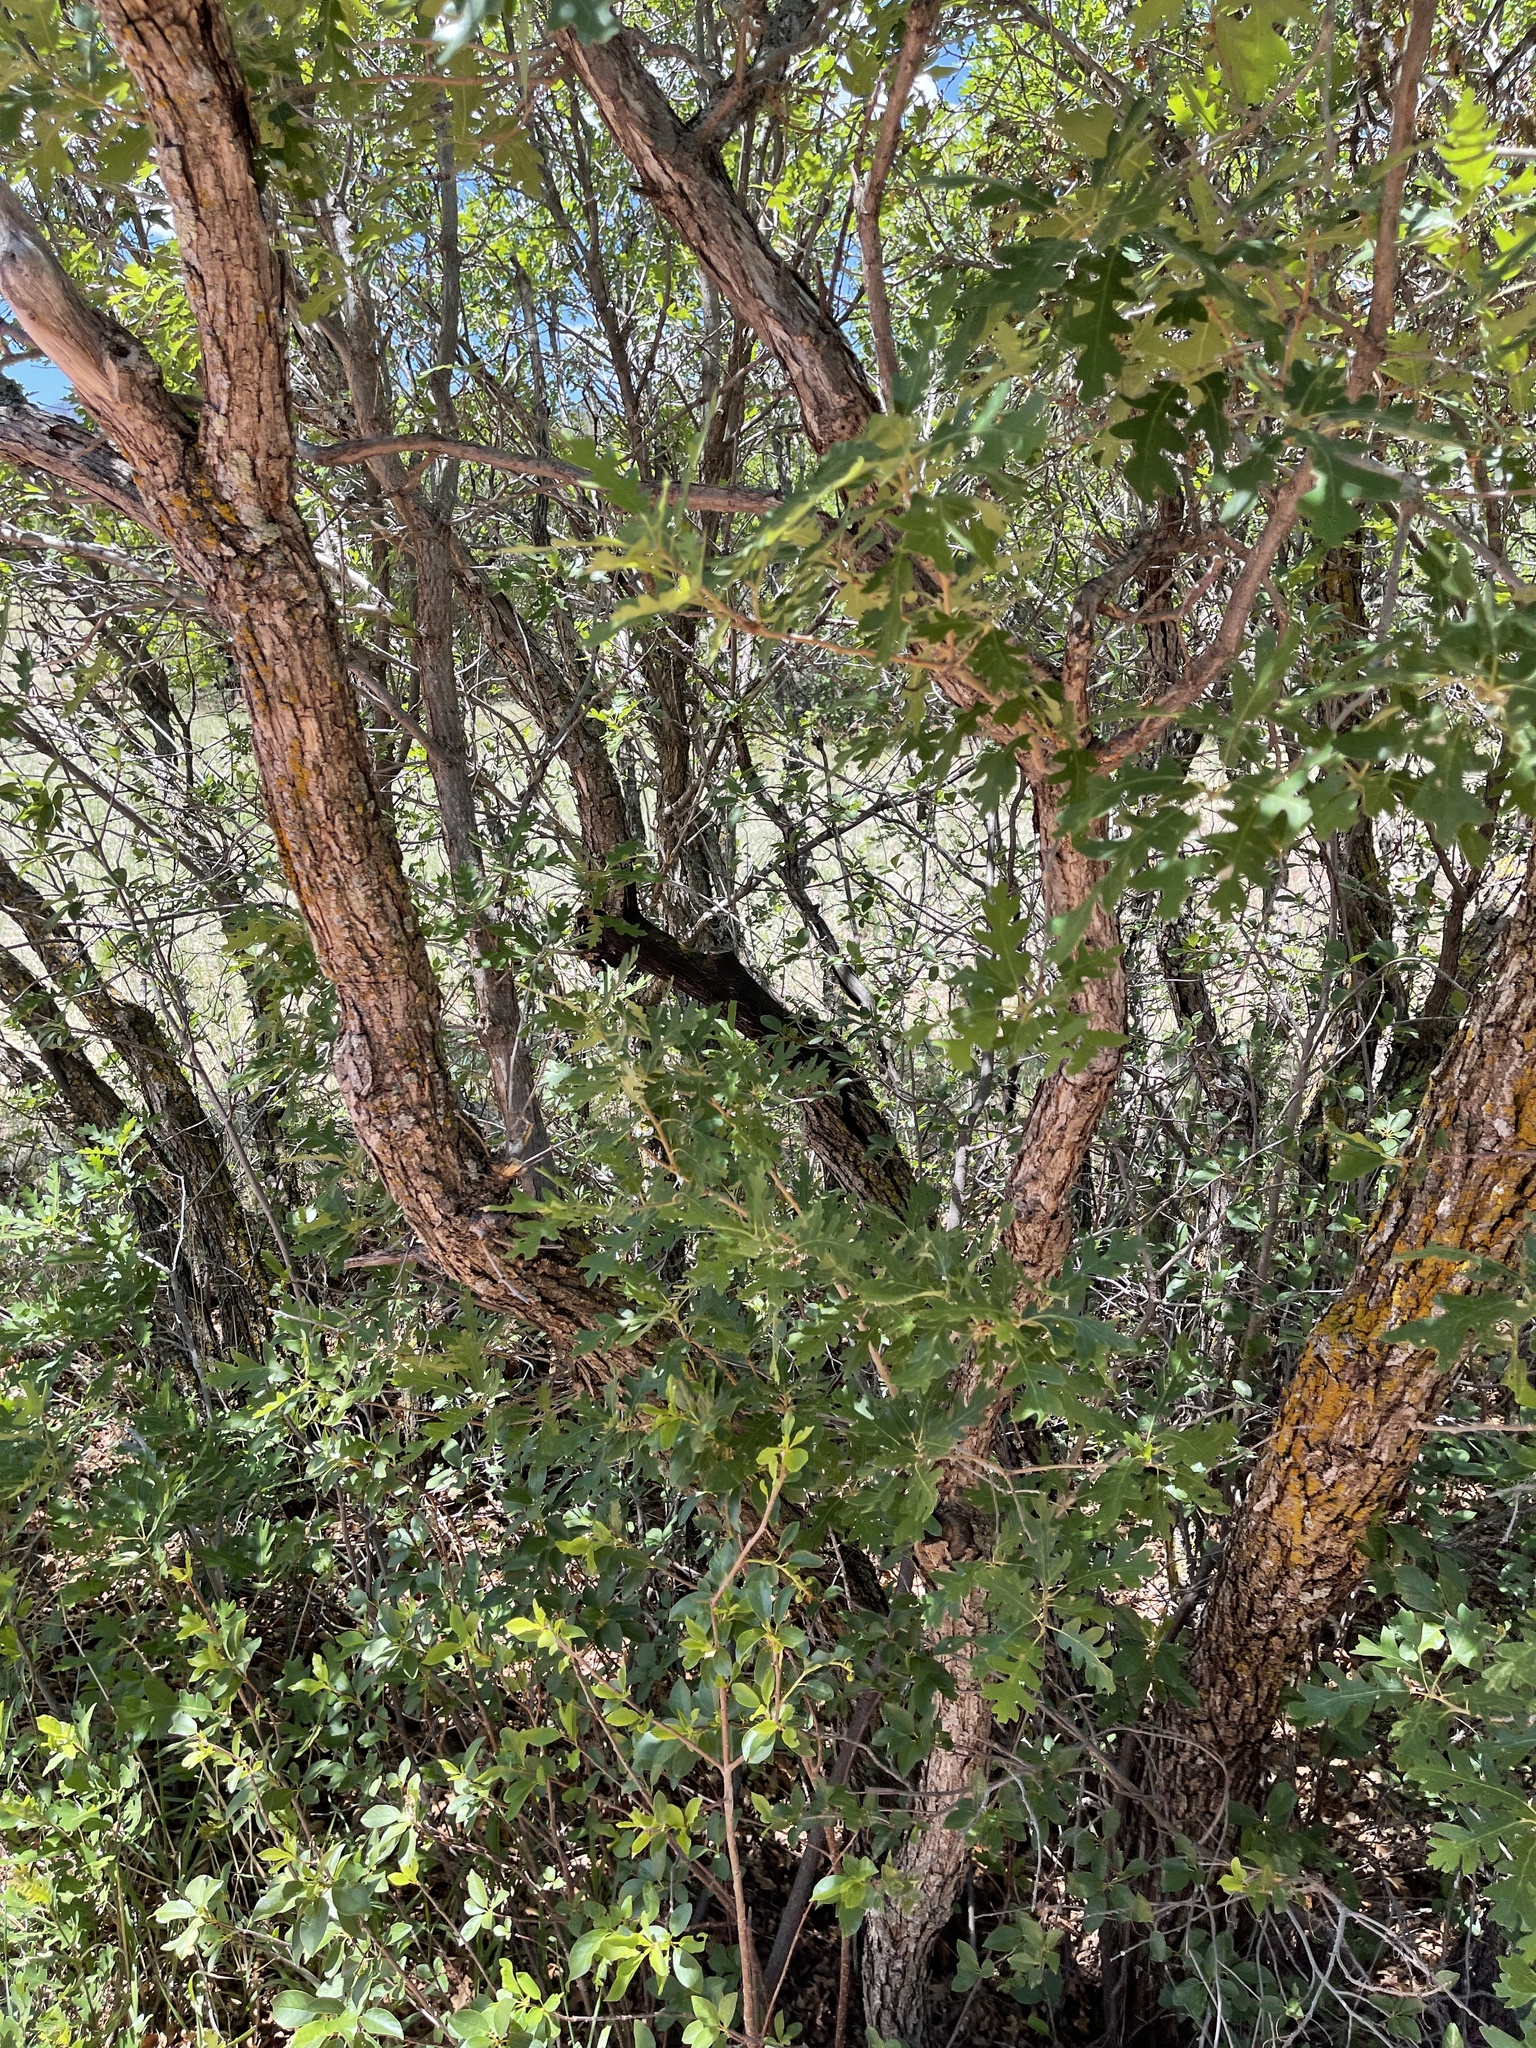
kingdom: Plantae
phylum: Tracheophyta
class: Magnoliopsida
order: Fagales
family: Fagaceae
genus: Quercus
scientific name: Quercus gambelii
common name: Gambel oak
